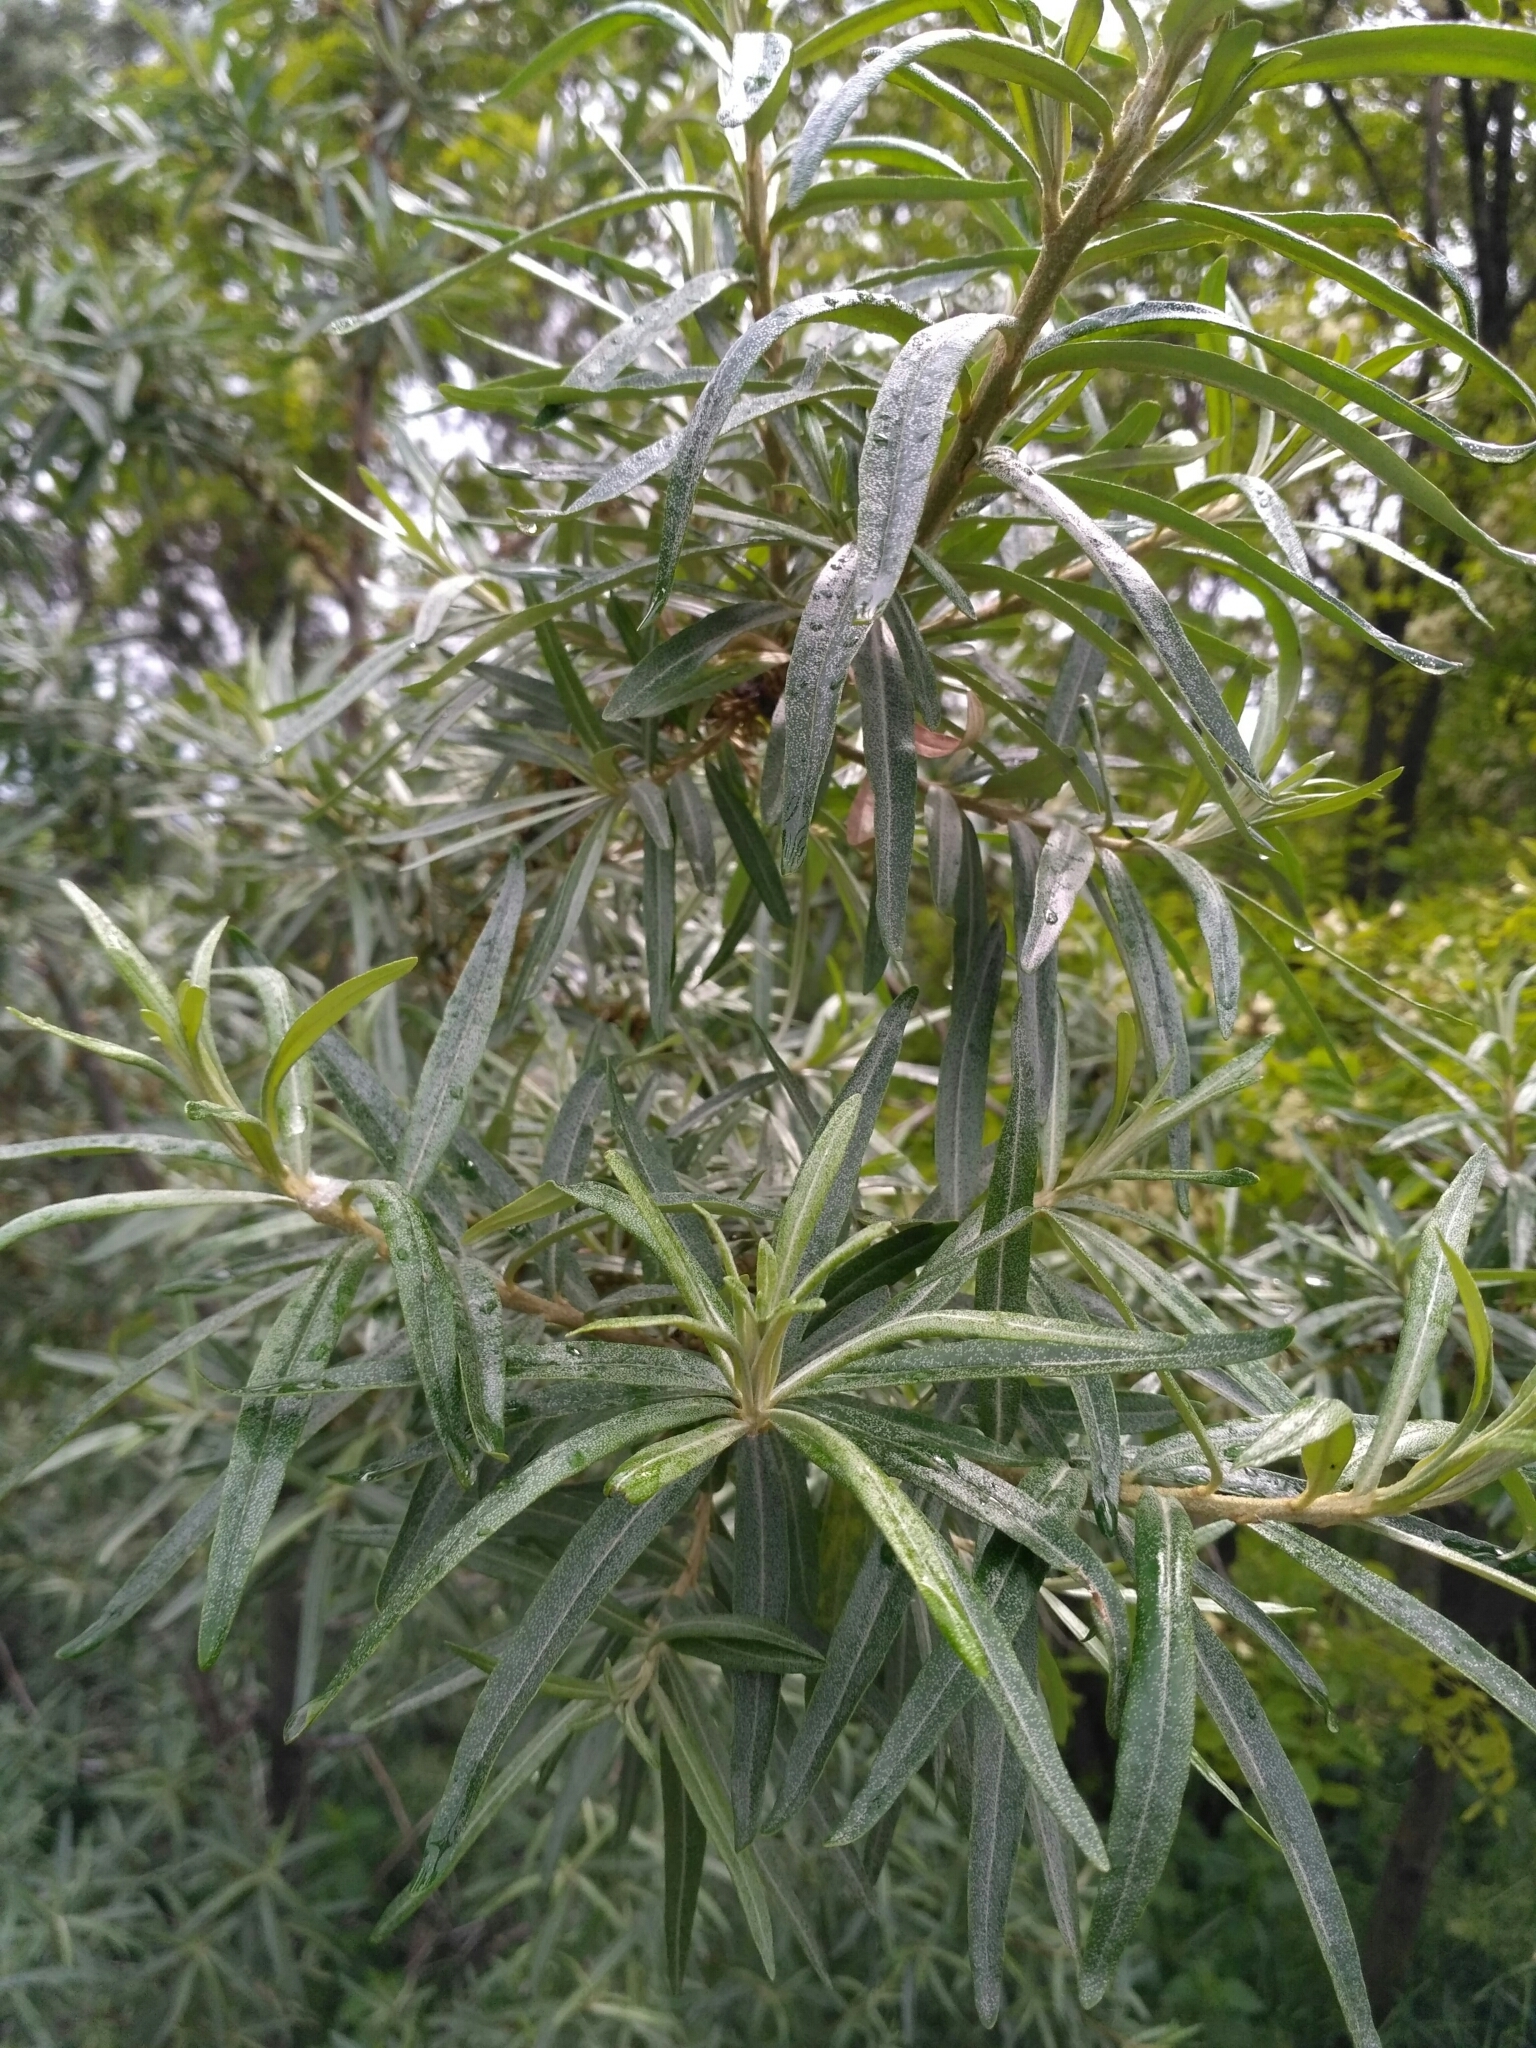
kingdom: Plantae
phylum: Tracheophyta
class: Magnoliopsida
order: Rosales
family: Elaeagnaceae
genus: Hippophae
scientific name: Hippophae rhamnoides
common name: Sea-buckthorn
